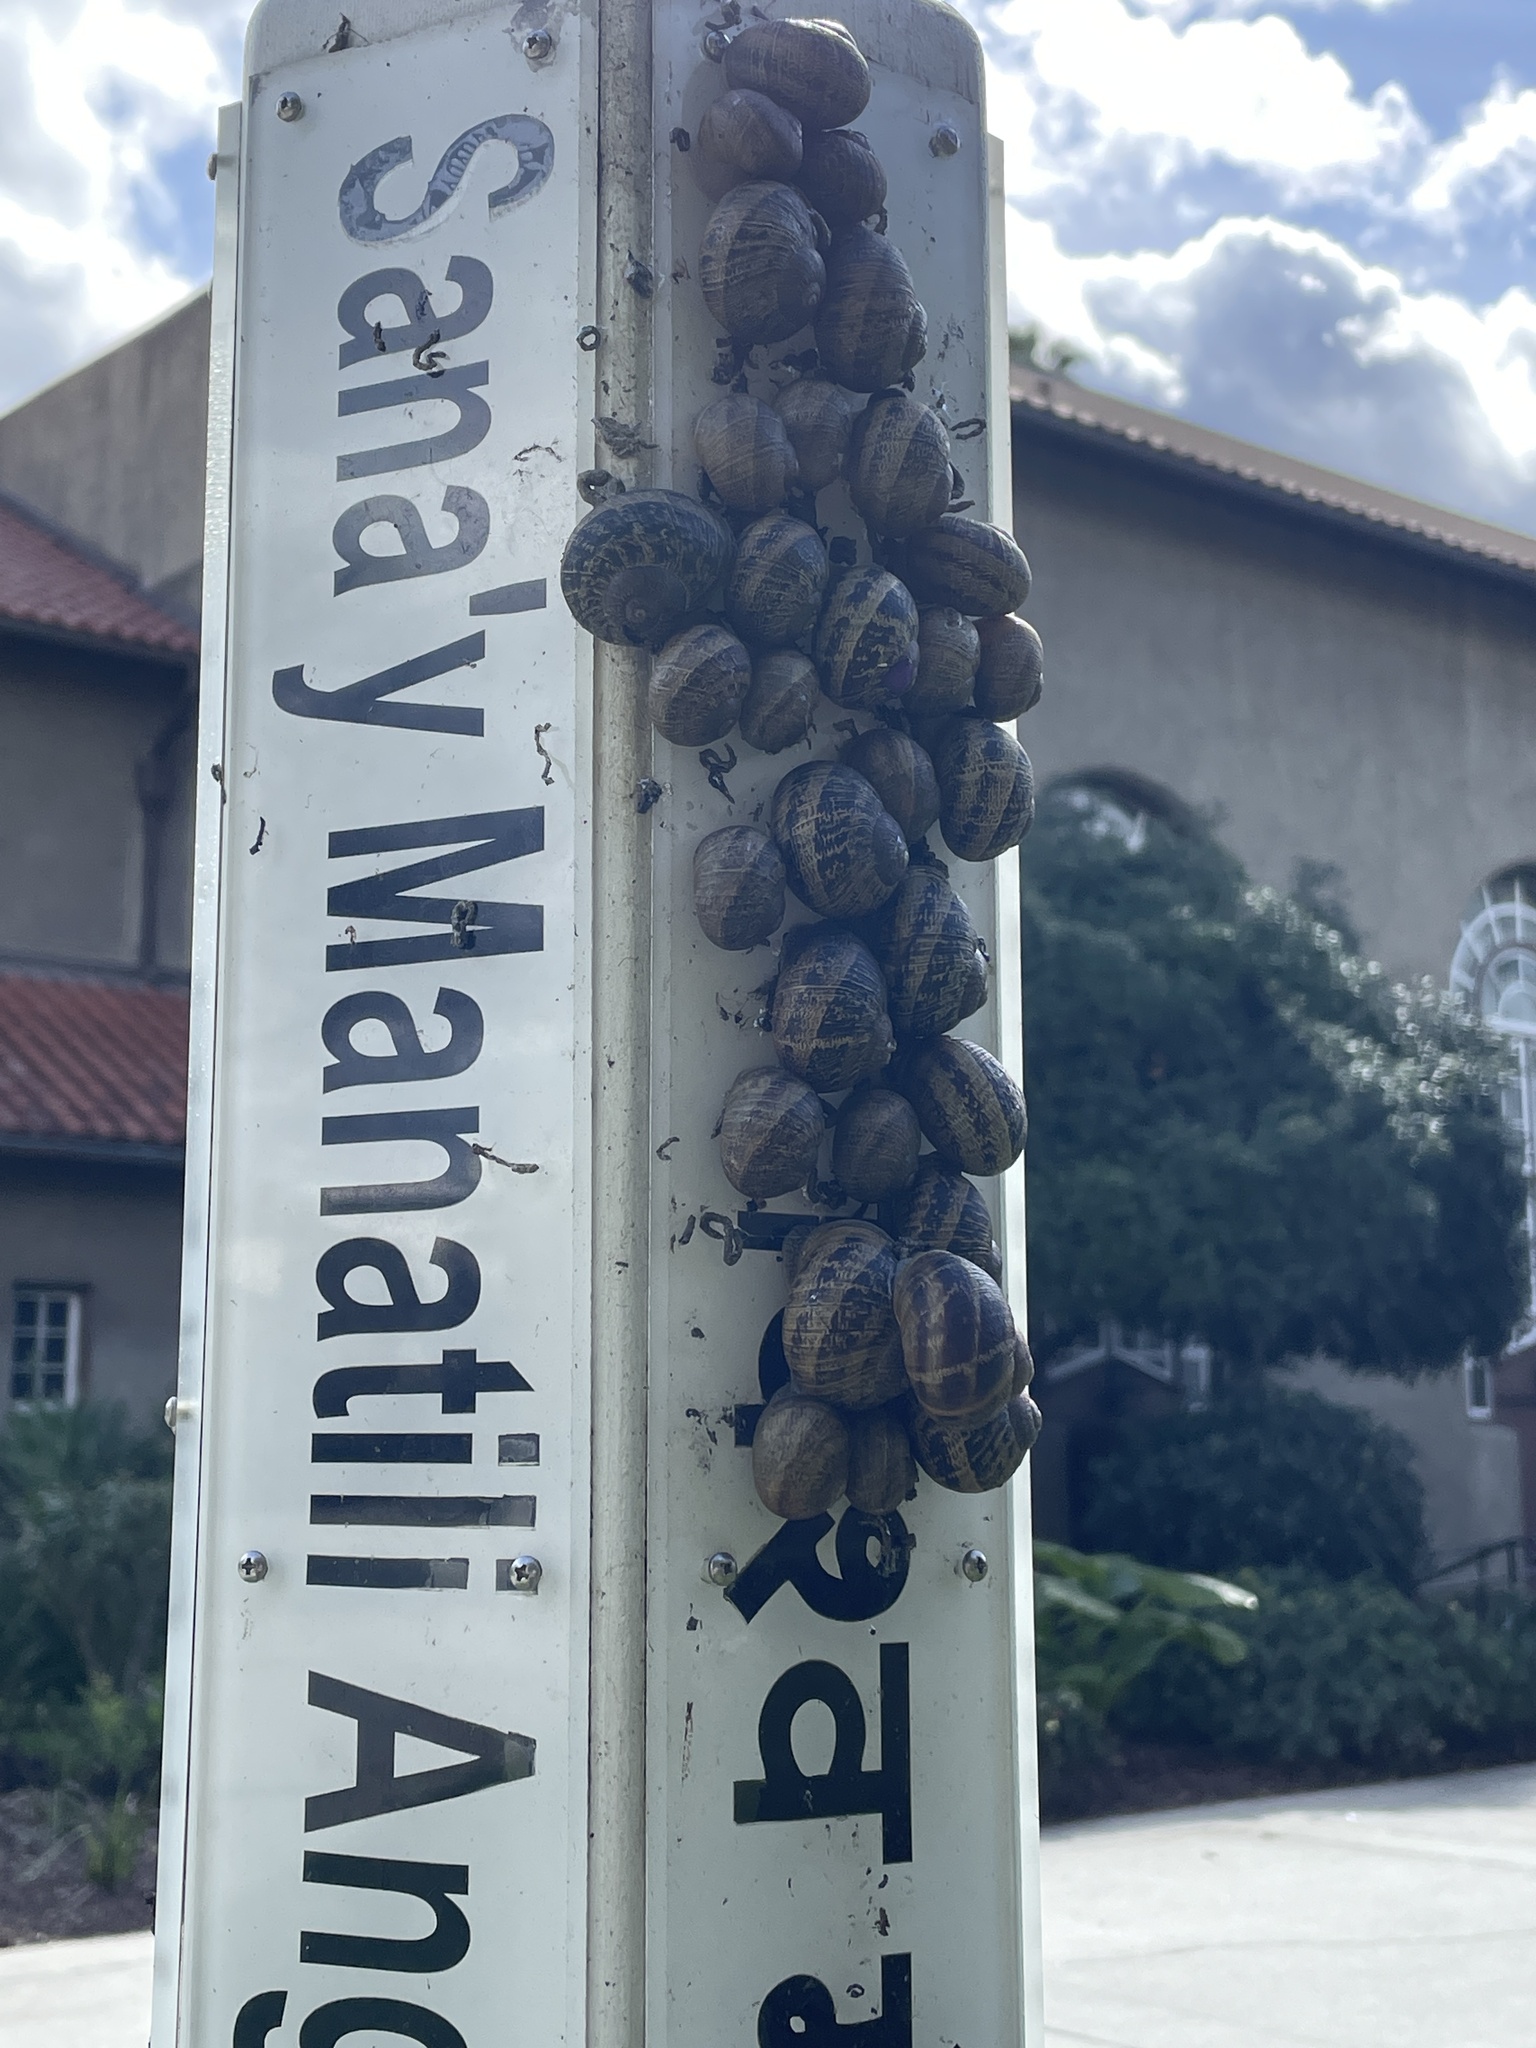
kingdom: Animalia
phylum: Mollusca
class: Gastropoda
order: Stylommatophora
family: Helicidae
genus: Cornu
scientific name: Cornu aspersum
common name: Brown garden snail
